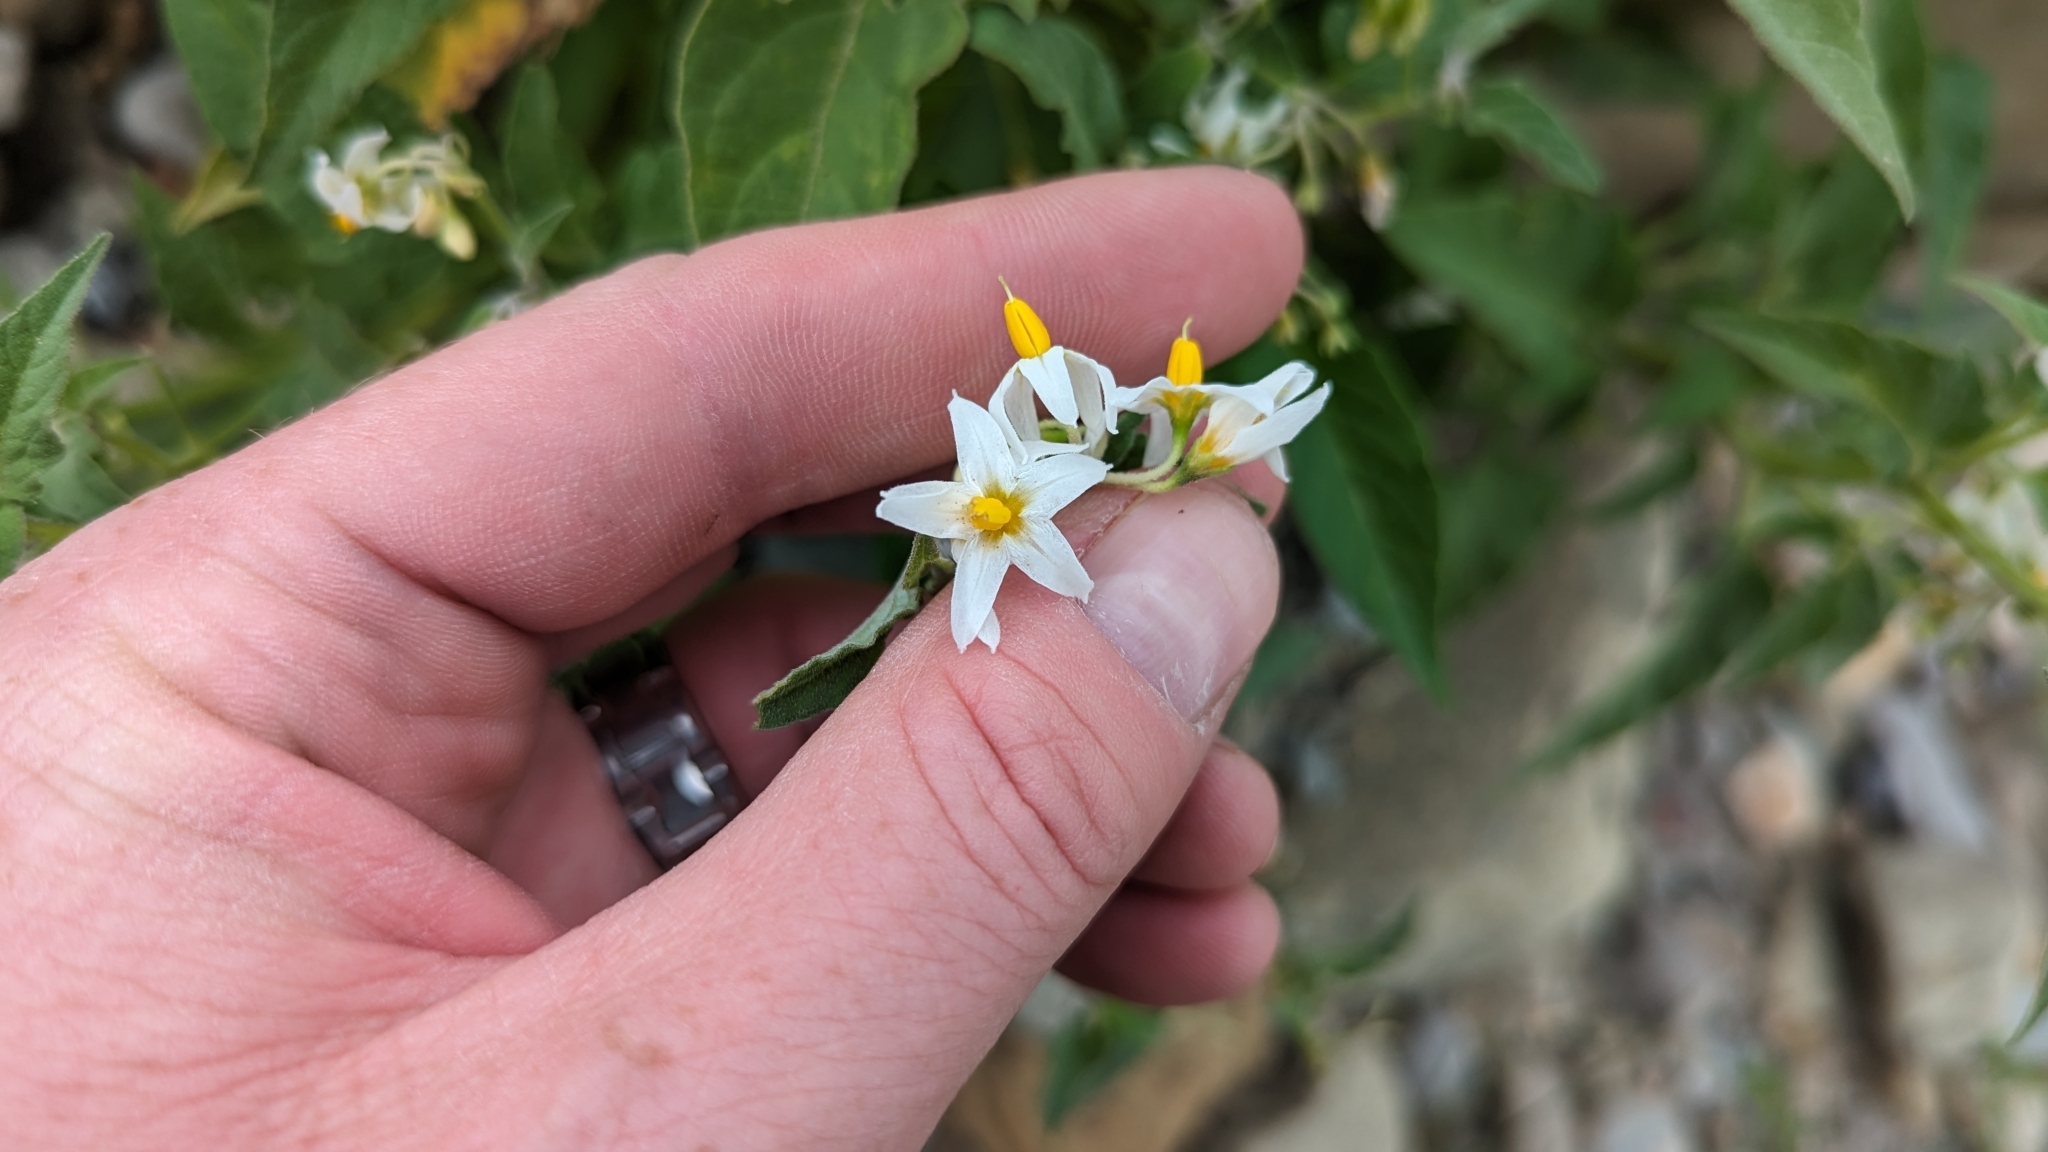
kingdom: Plantae
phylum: Tracheophyta
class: Magnoliopsida
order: Solanales
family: Solanaceae
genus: Solanum
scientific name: Solanum douglasii
